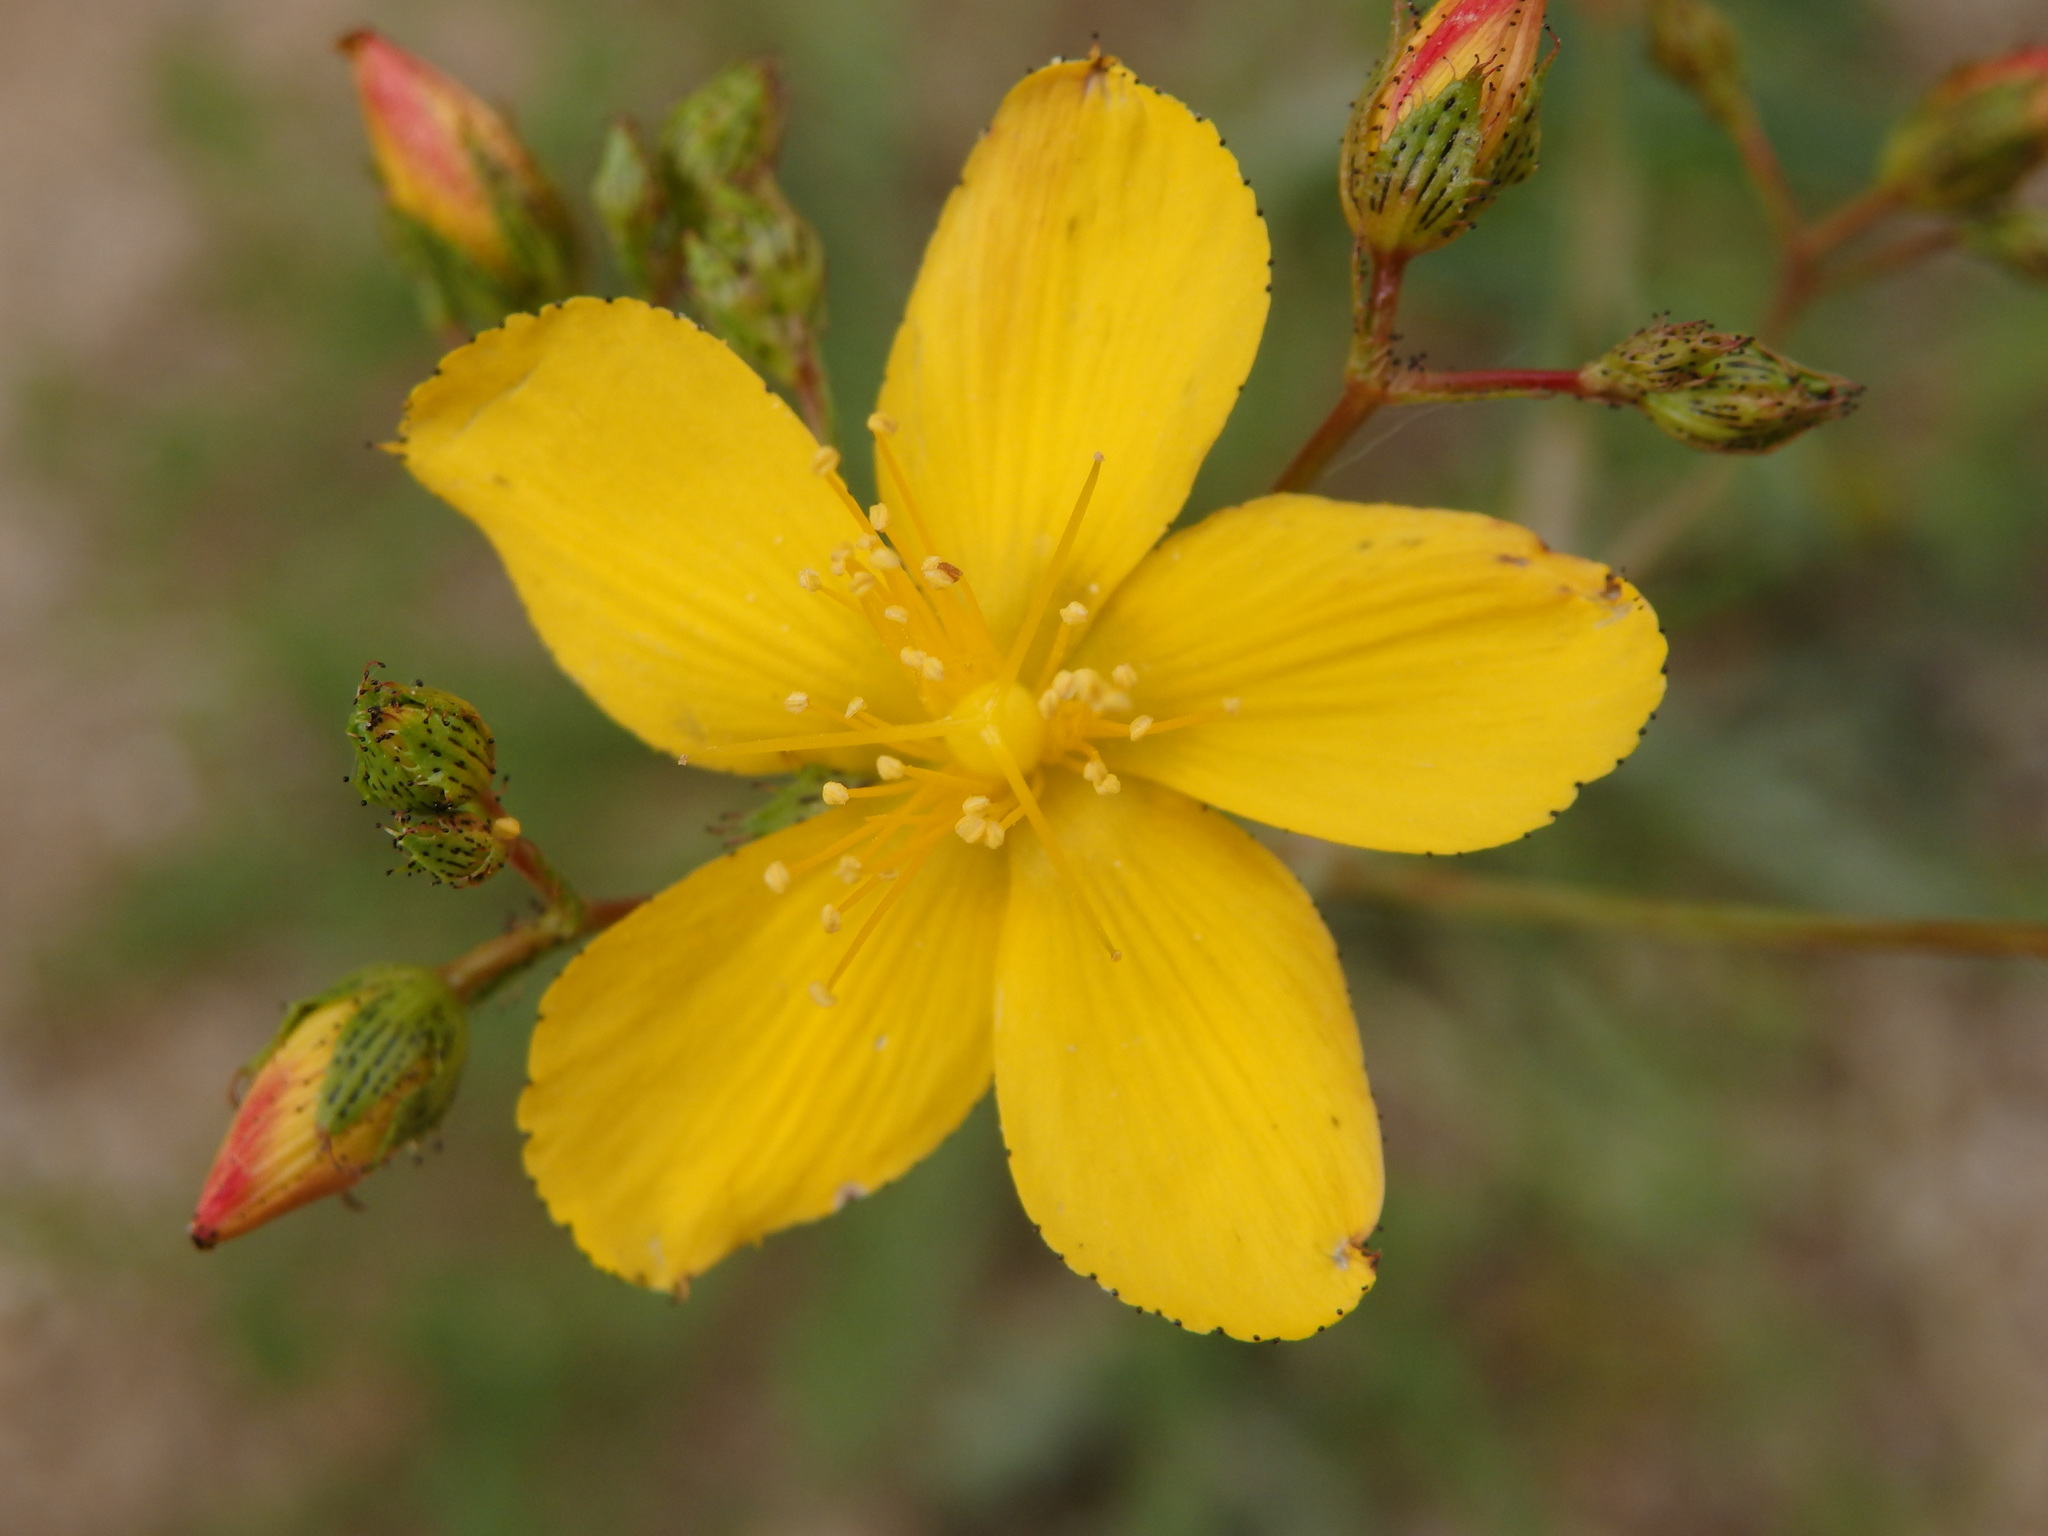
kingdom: Plantae
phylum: Tracheophyta
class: Magnoliopsida
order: Malpighiales
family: Hypericaceae
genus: Hypericum
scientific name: Hypericum linariifolium
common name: Toadflax-leaved st. john's-wort
